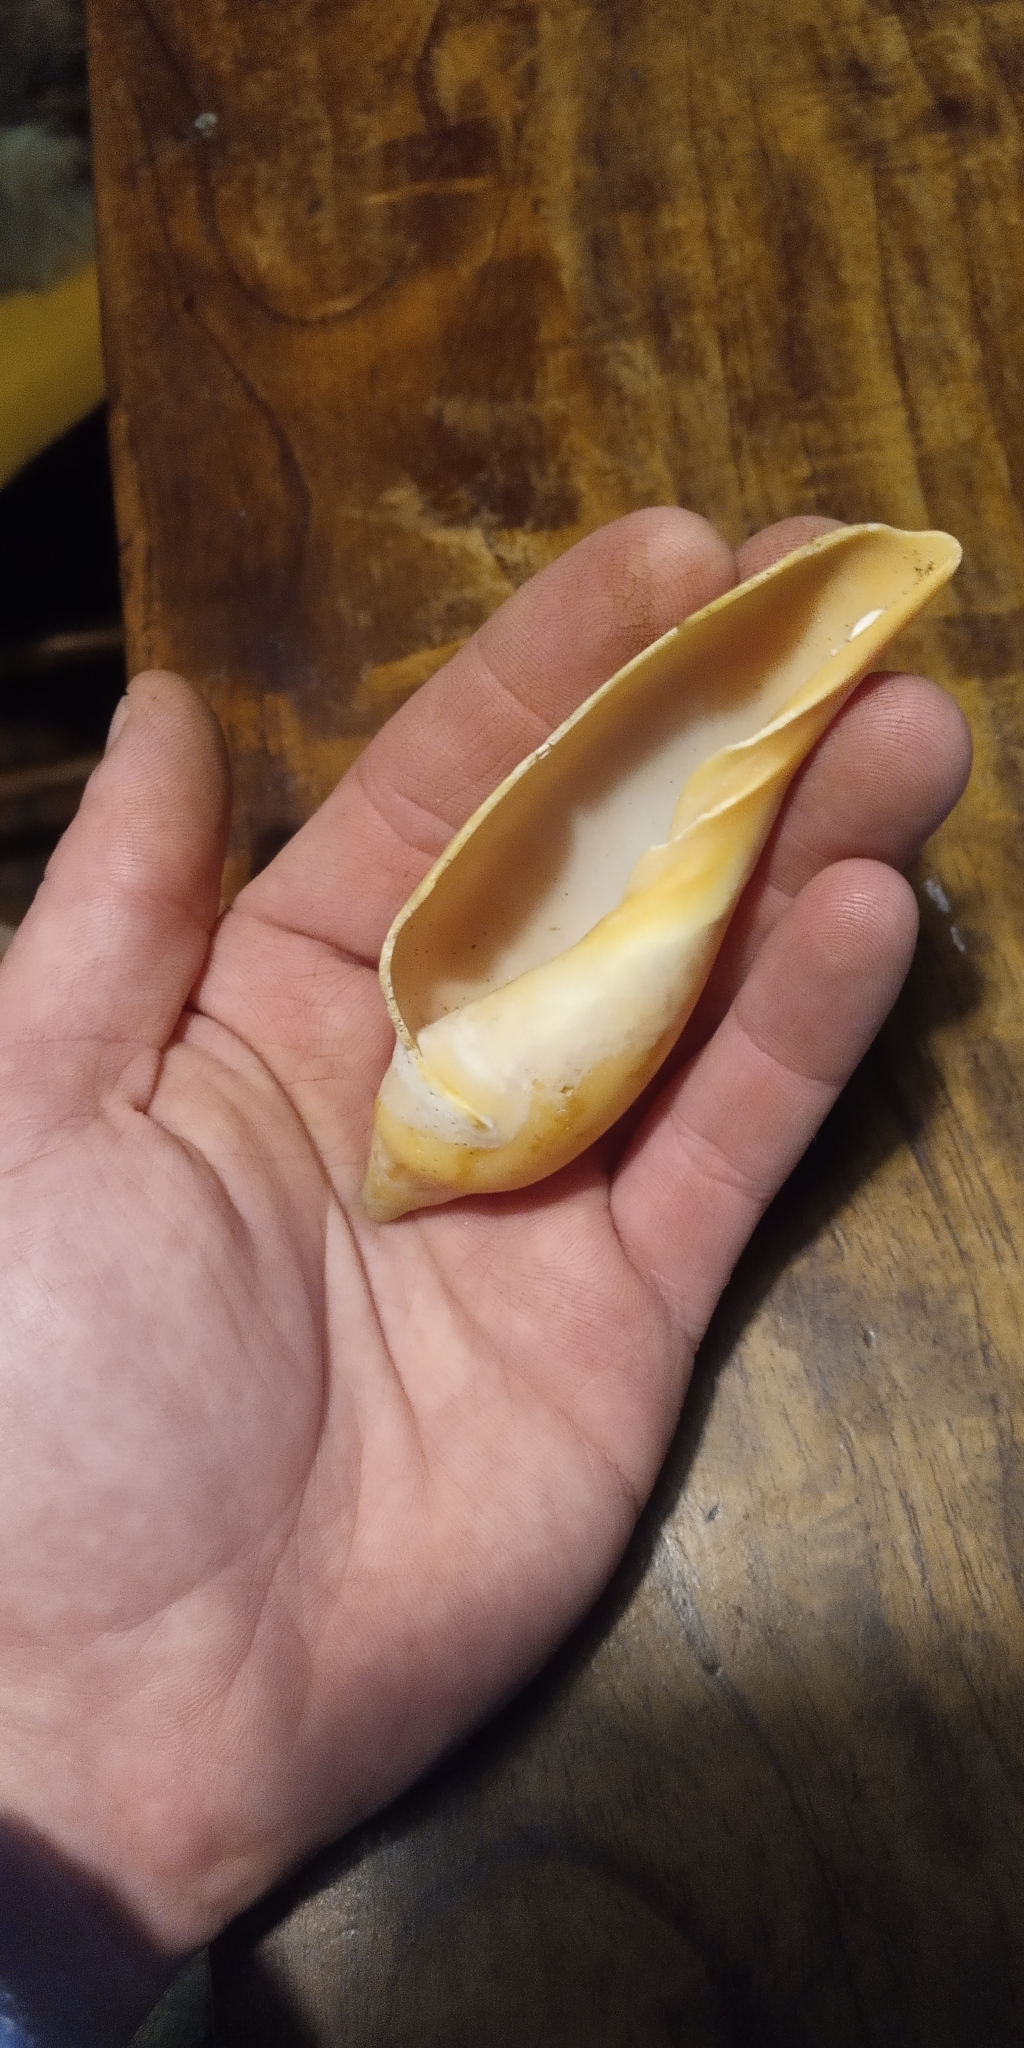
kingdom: Animalia
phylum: Mollusca
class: Gastropoda
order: Neogastropoda
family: Volutidae
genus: Zidona
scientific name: Zidona dufresnii
